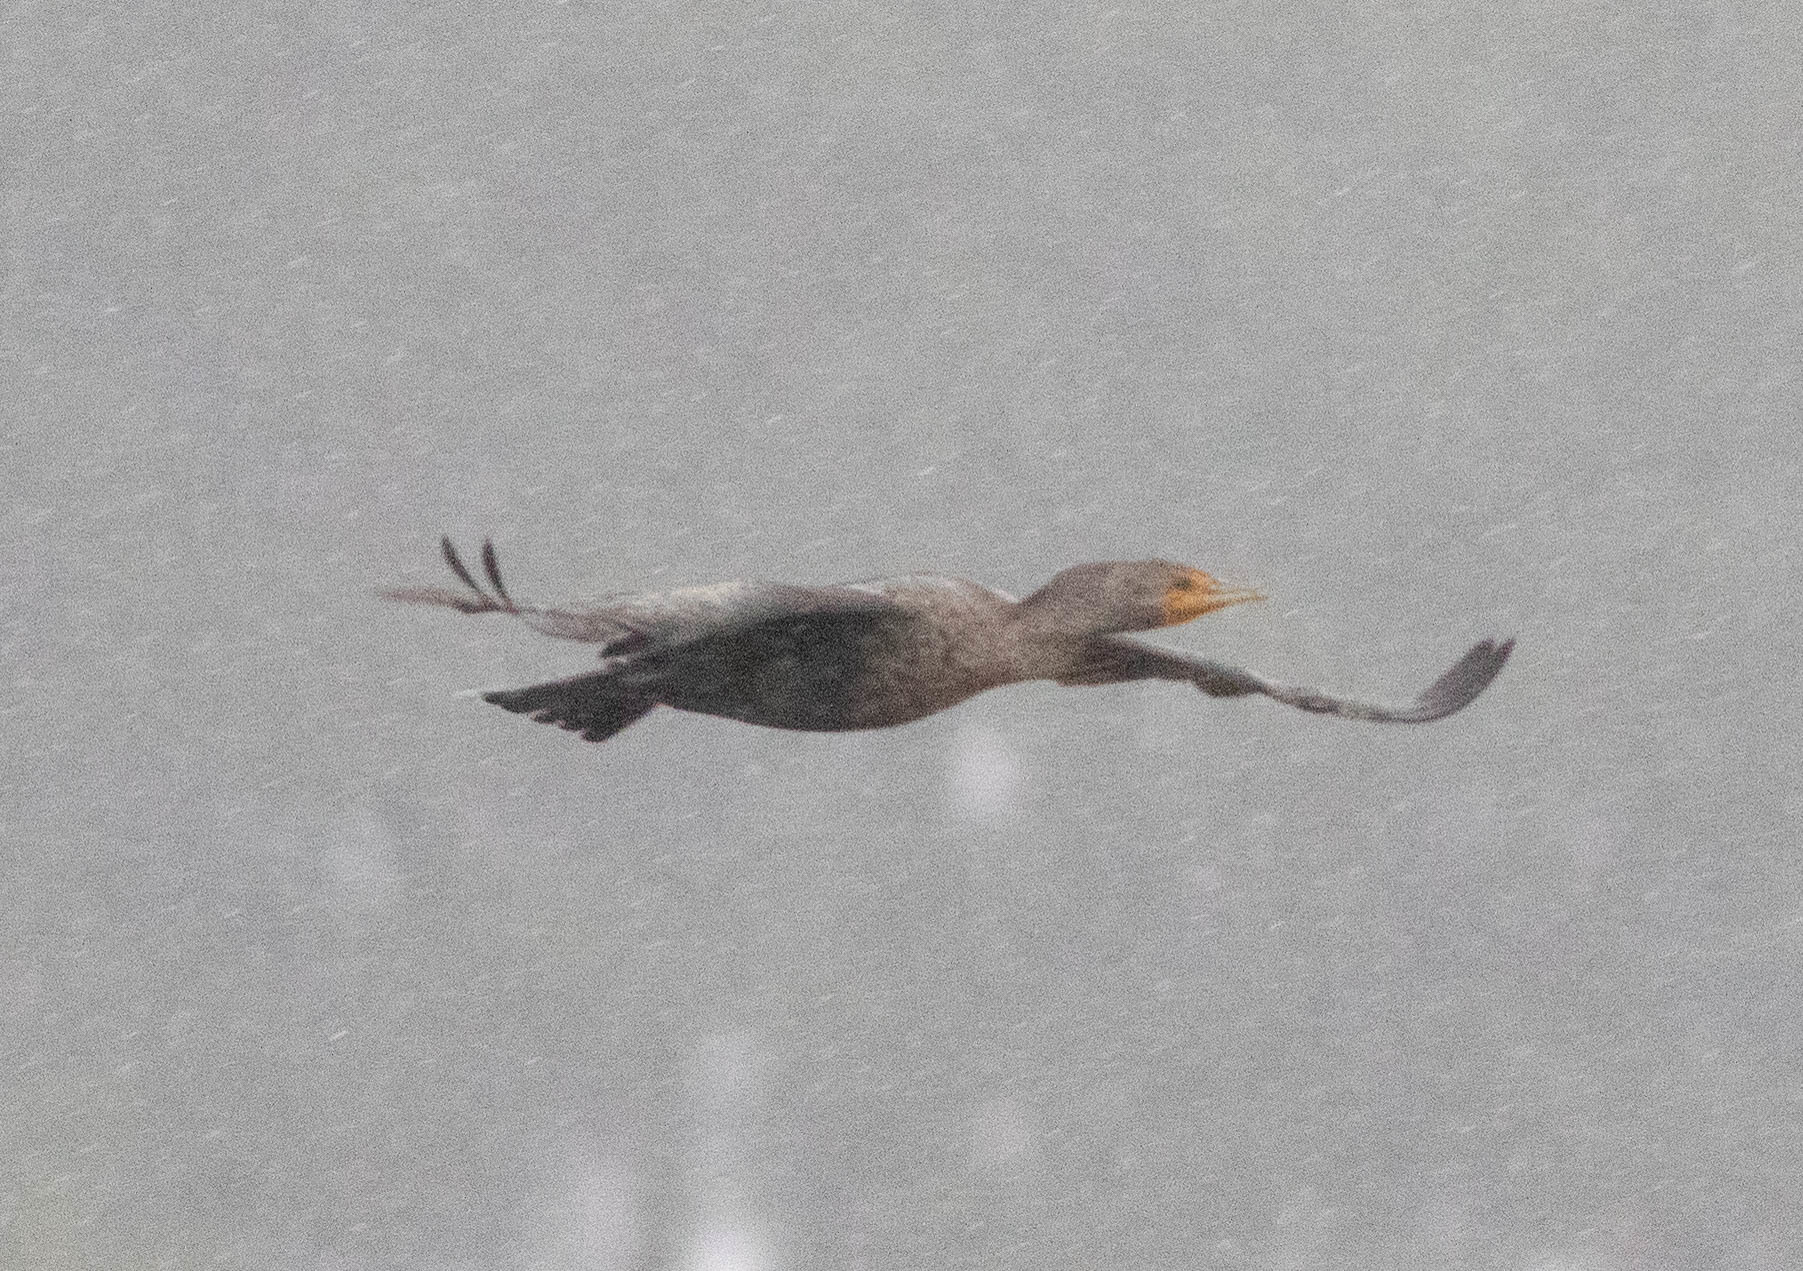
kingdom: Animalia
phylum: Chordata
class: Aves
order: Suliformes
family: Phalacrocoracidae
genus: Phalacrocorax
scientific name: Phalacrocorax auritus
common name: Double-crested cormorant
